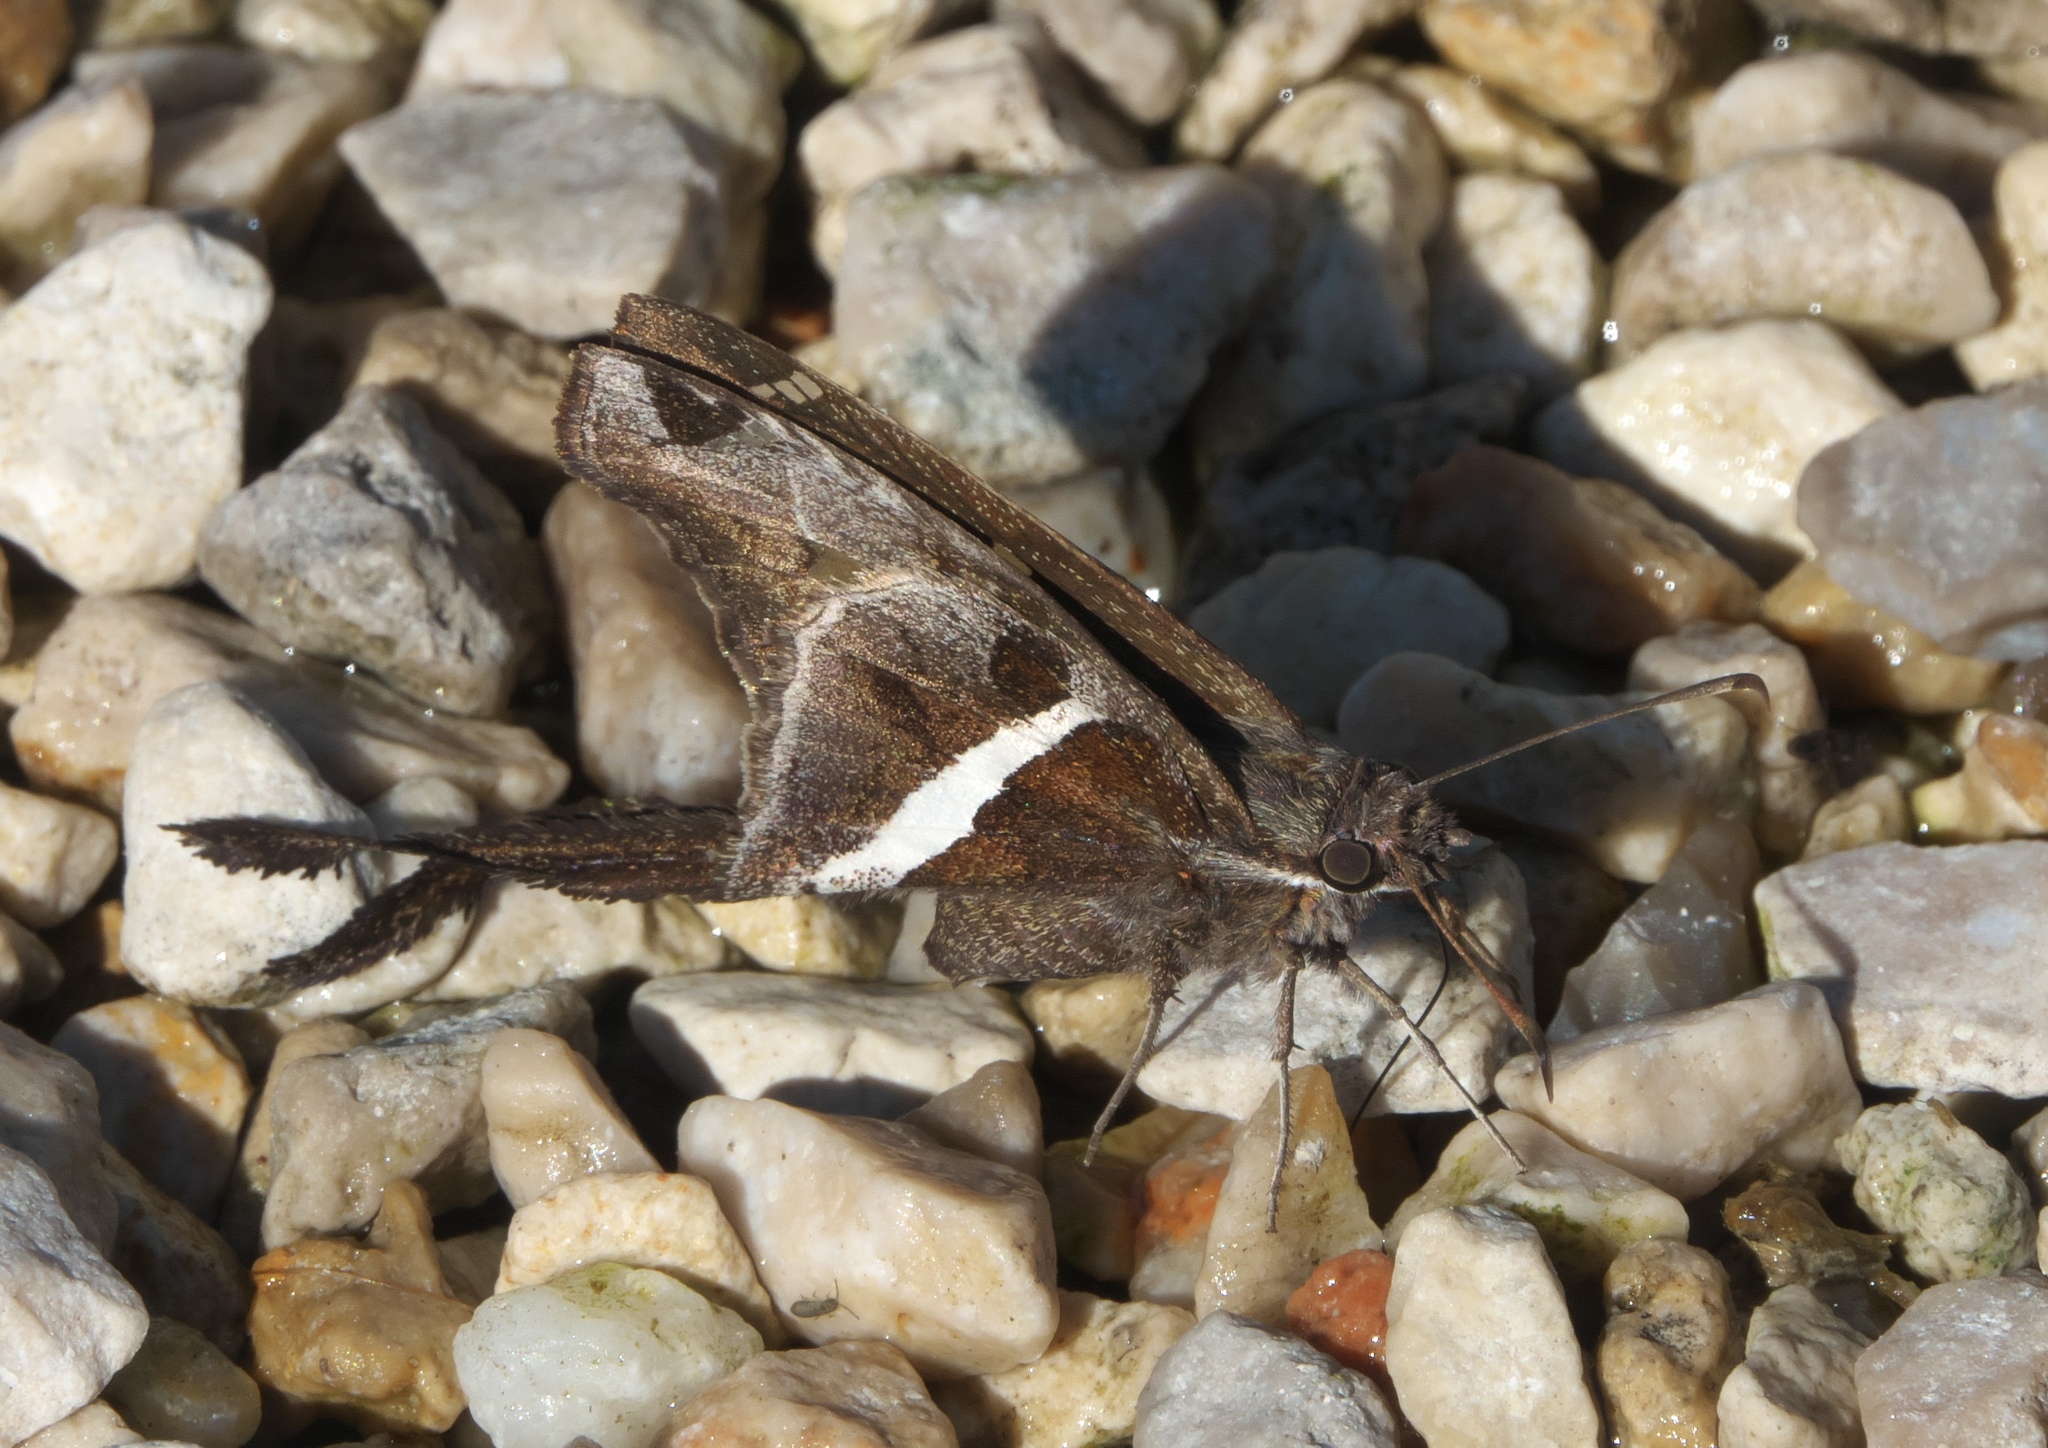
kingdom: Animalia
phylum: Arthropoda
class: Insecta
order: Lepidoptera
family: Hesperiidae
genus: Chioides
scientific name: Chioides catillus
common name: Silverbanded skipper
